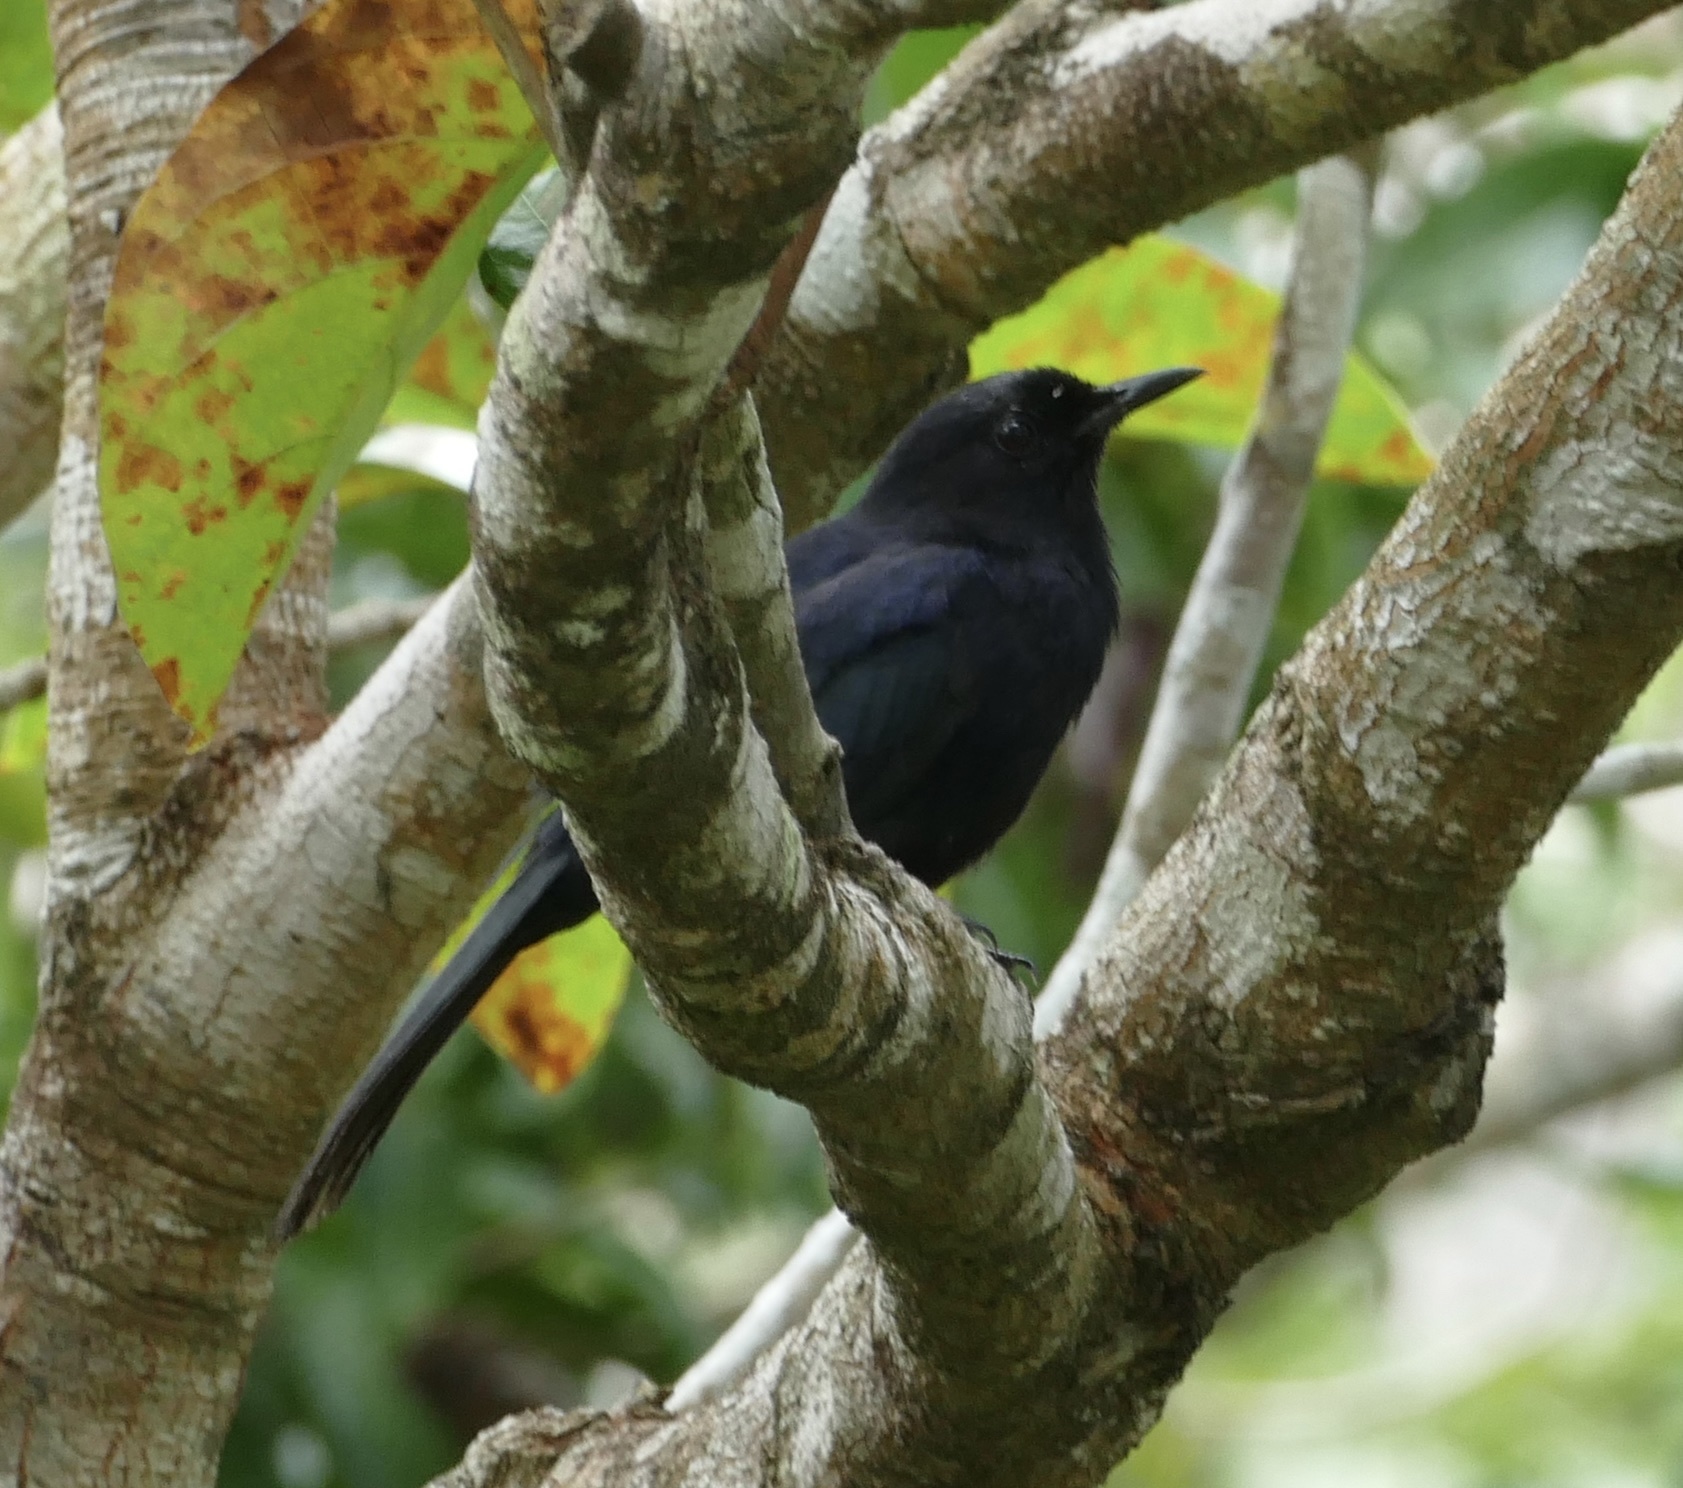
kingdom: Animalia
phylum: Chordata
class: Aves
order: Passeriformes
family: Mimidae
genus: Melanoptila
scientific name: Melanoptila glabrirostris
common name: Black catbird
